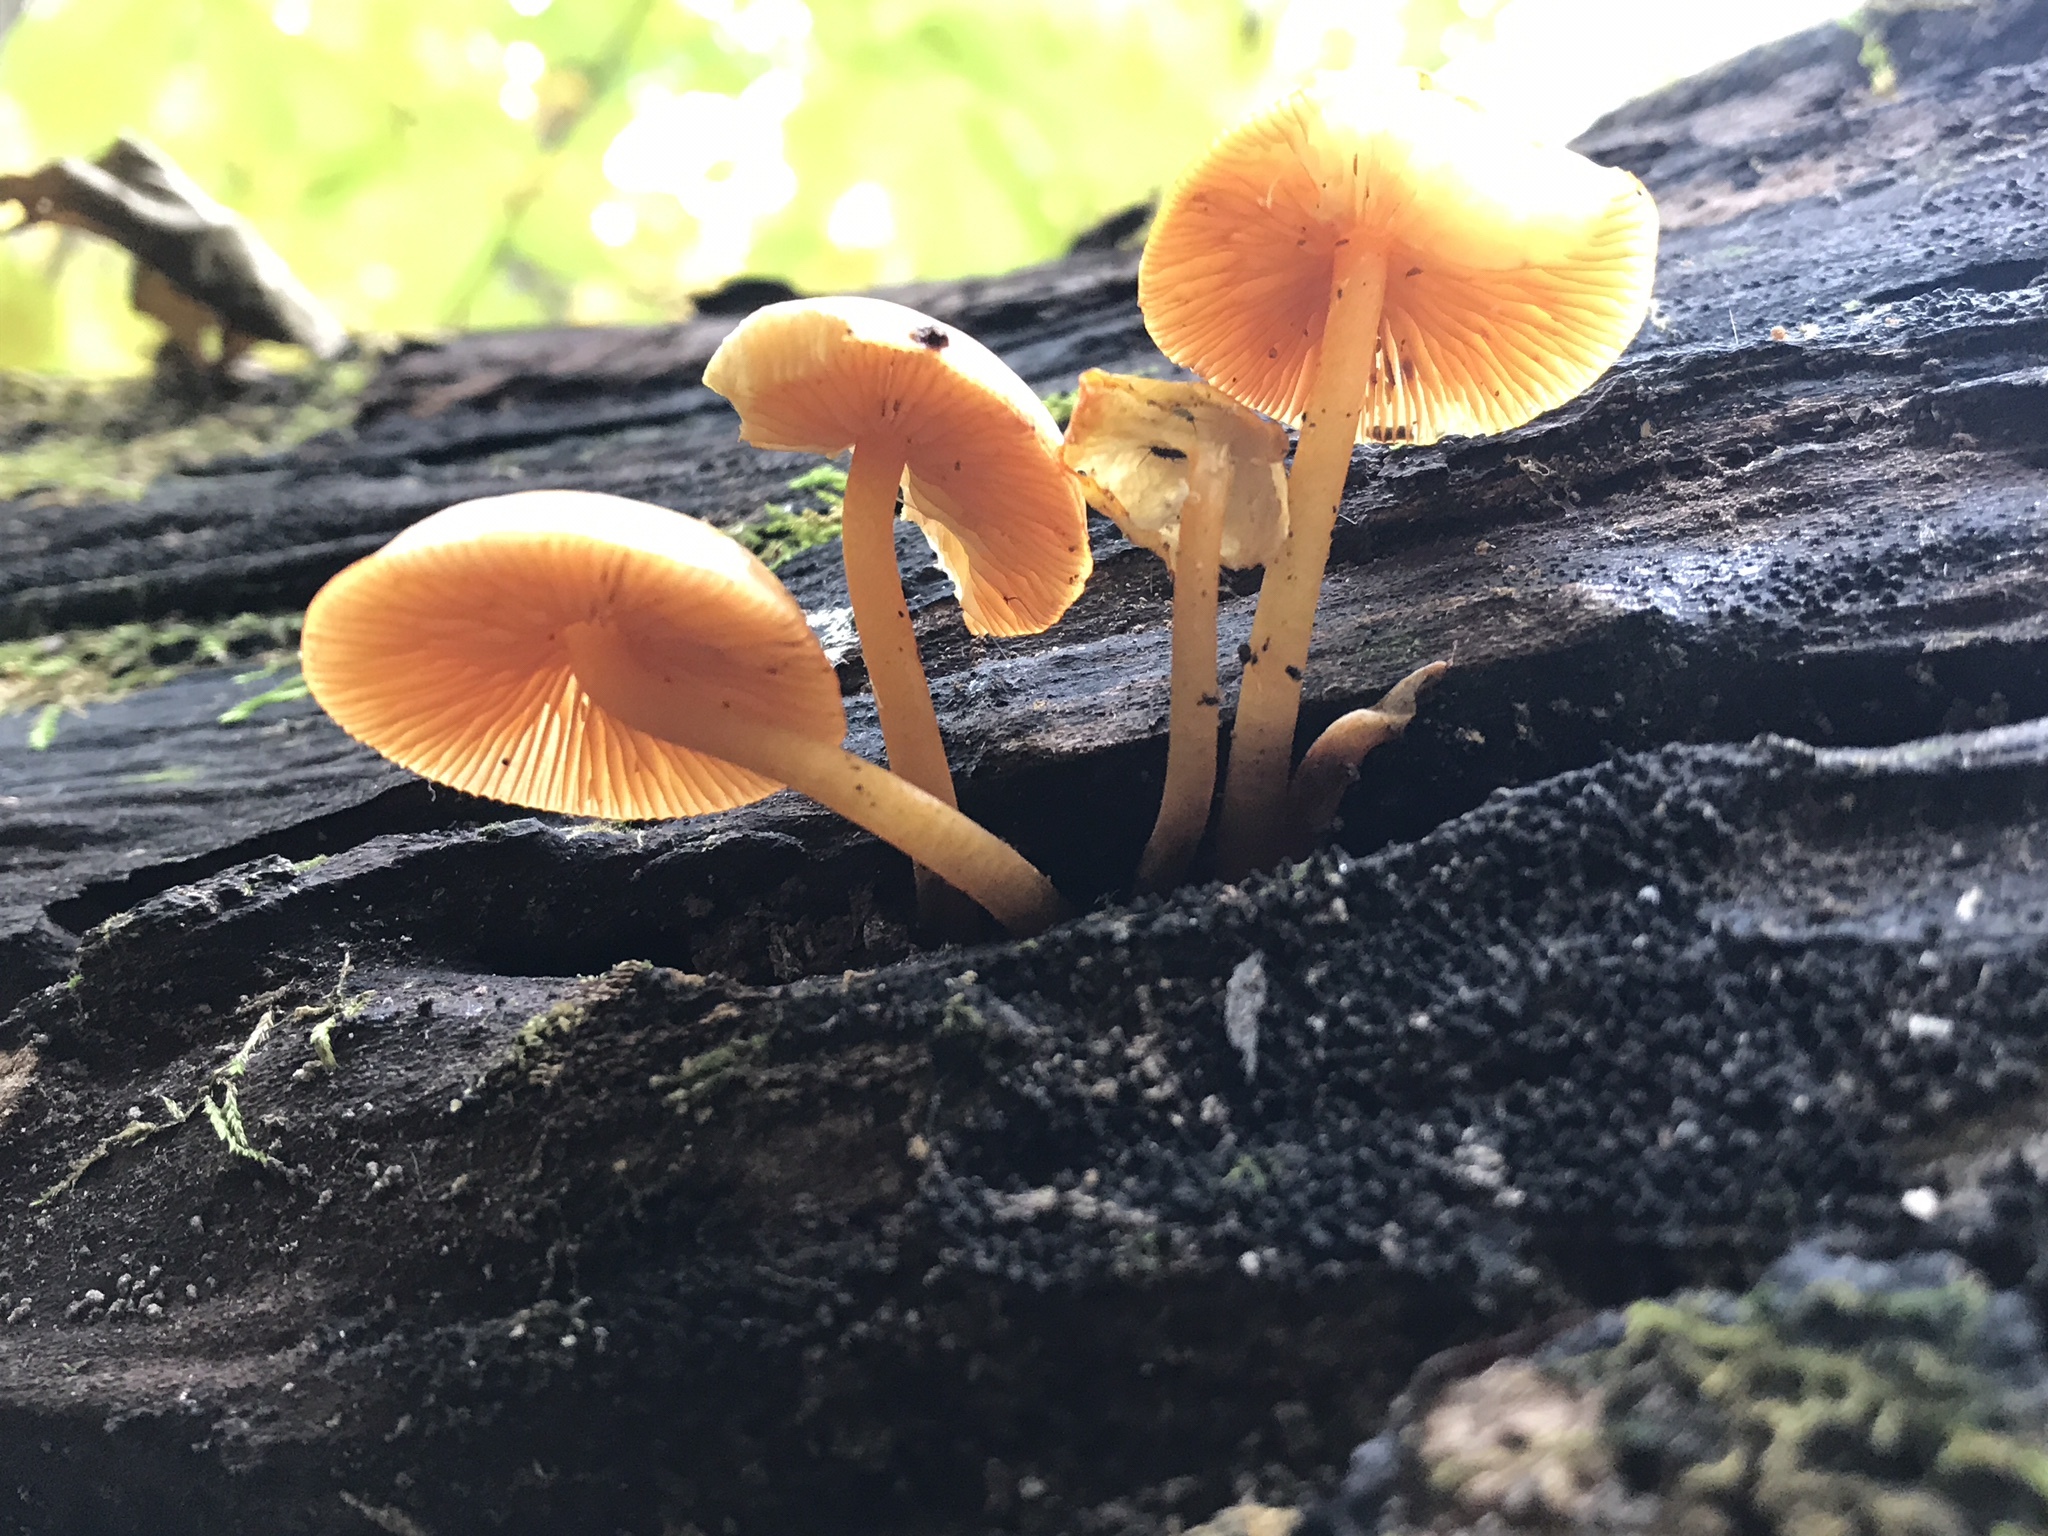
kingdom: Fungi
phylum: Basidiomycota
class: Agaricomycetes
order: Agaricales
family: Mycenaceae
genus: Mycena
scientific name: Mycena leaiana
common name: Orange mycena
